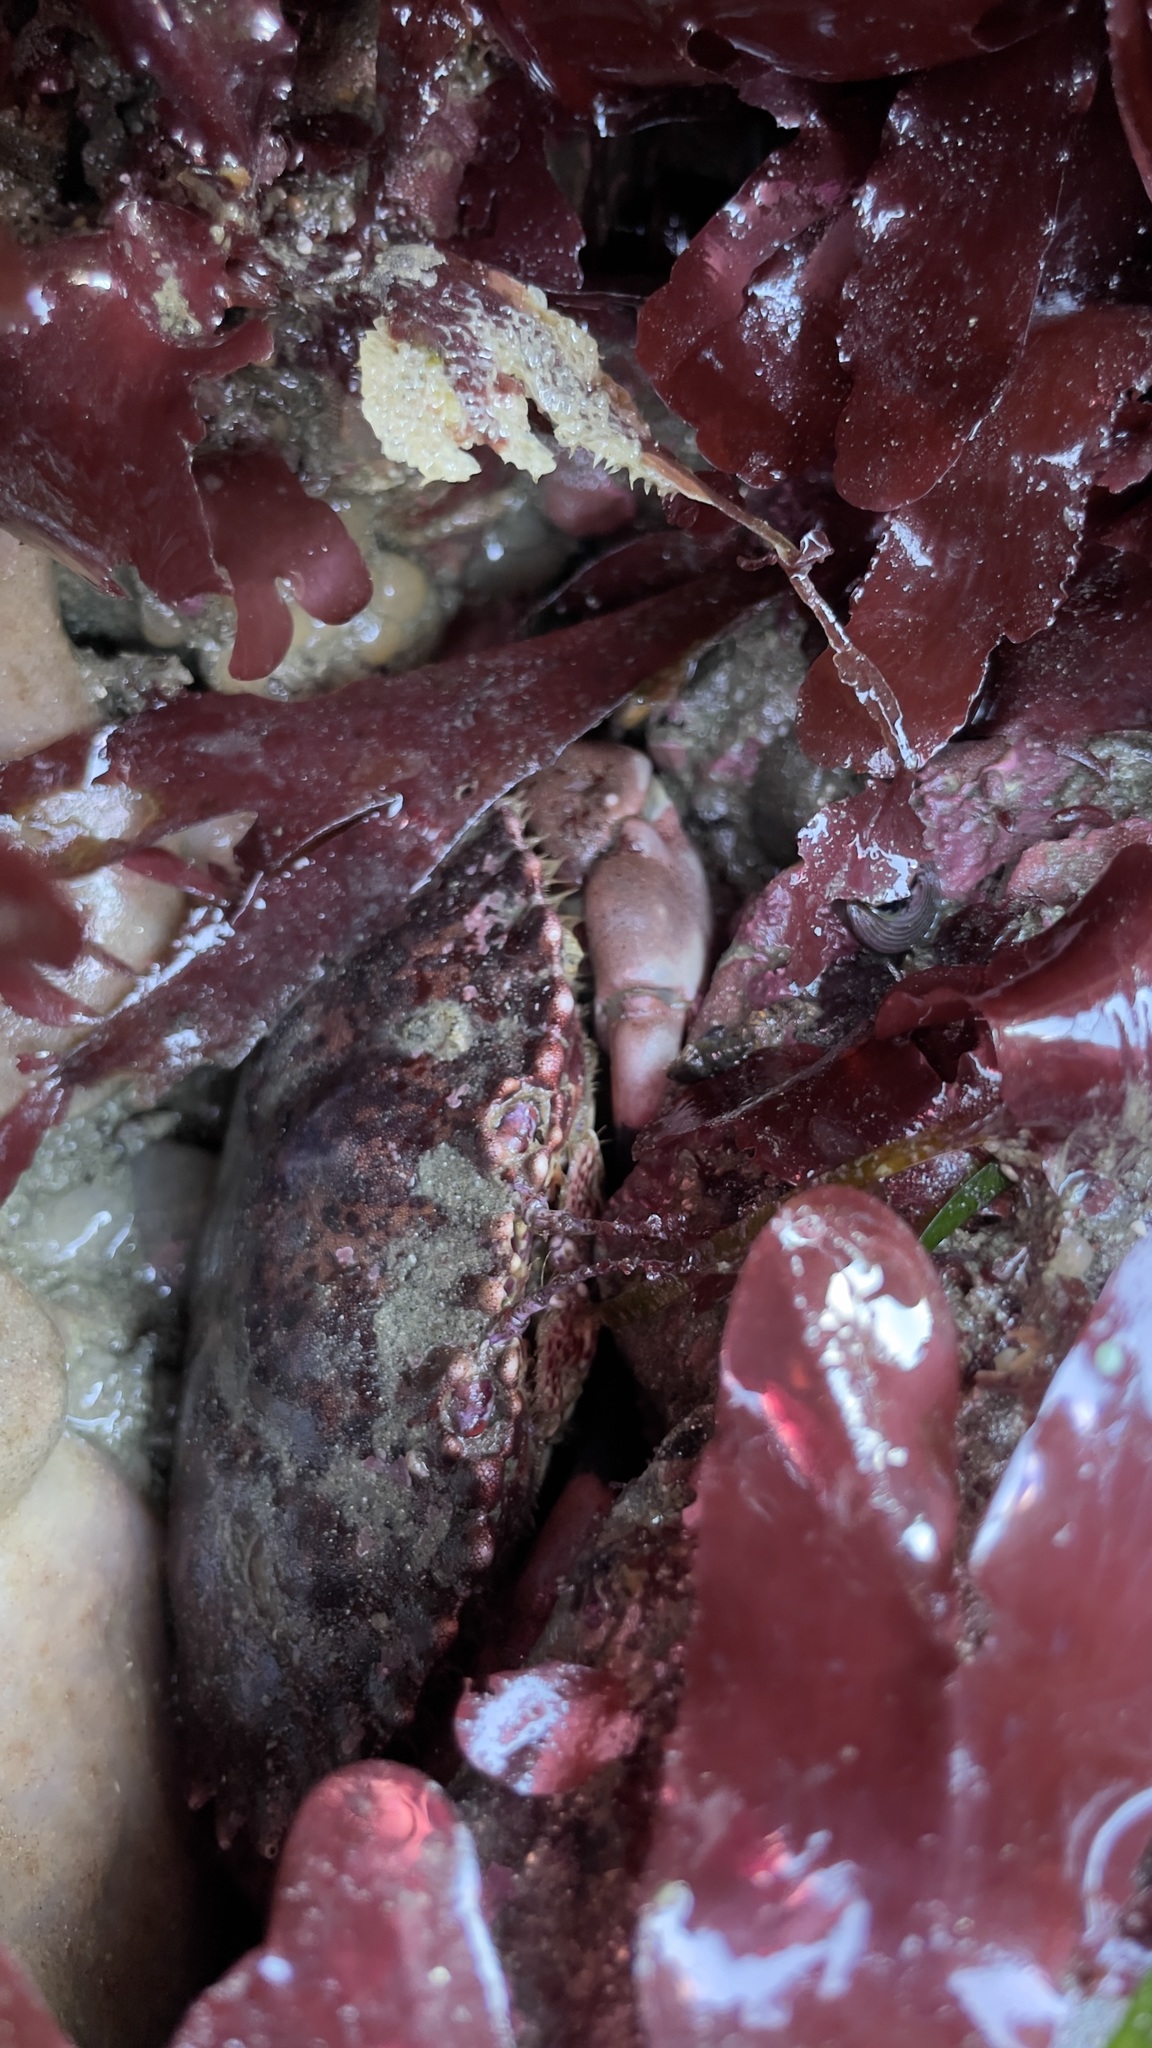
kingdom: Animalia
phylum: Arthropoda
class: Malacostraca
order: Decapoda
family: Cancridae
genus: Romaleon
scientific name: Romaleon antennarium
